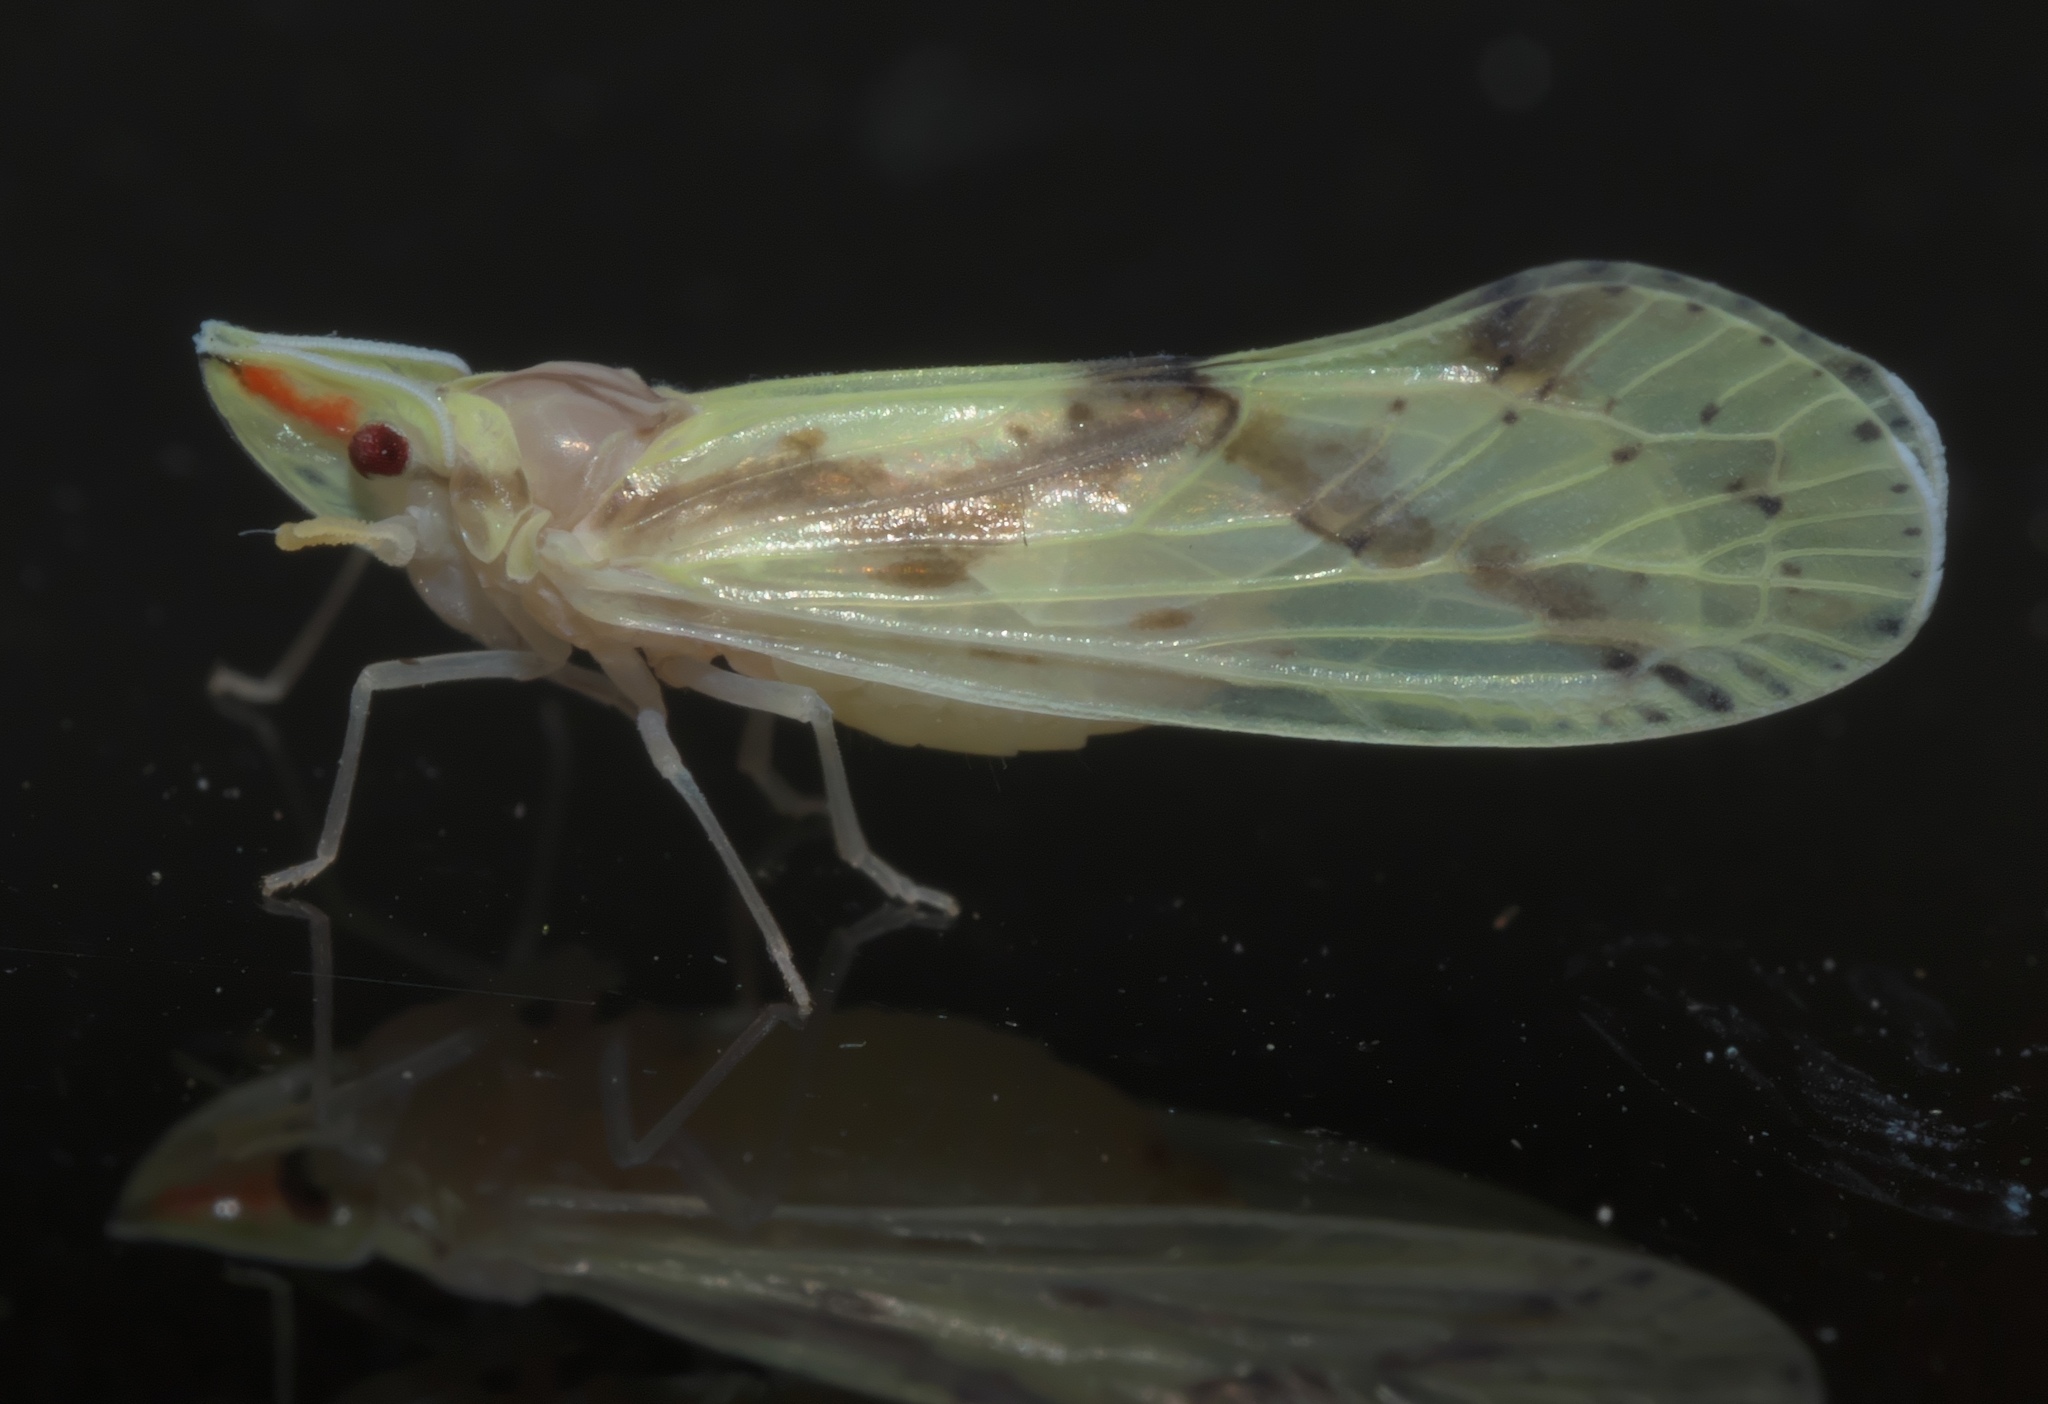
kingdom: Animalia
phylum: Arthropoda
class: Insecta
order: Hemiptera
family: Derbidae
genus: Otiocerus
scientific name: Otiocerus wolfii
